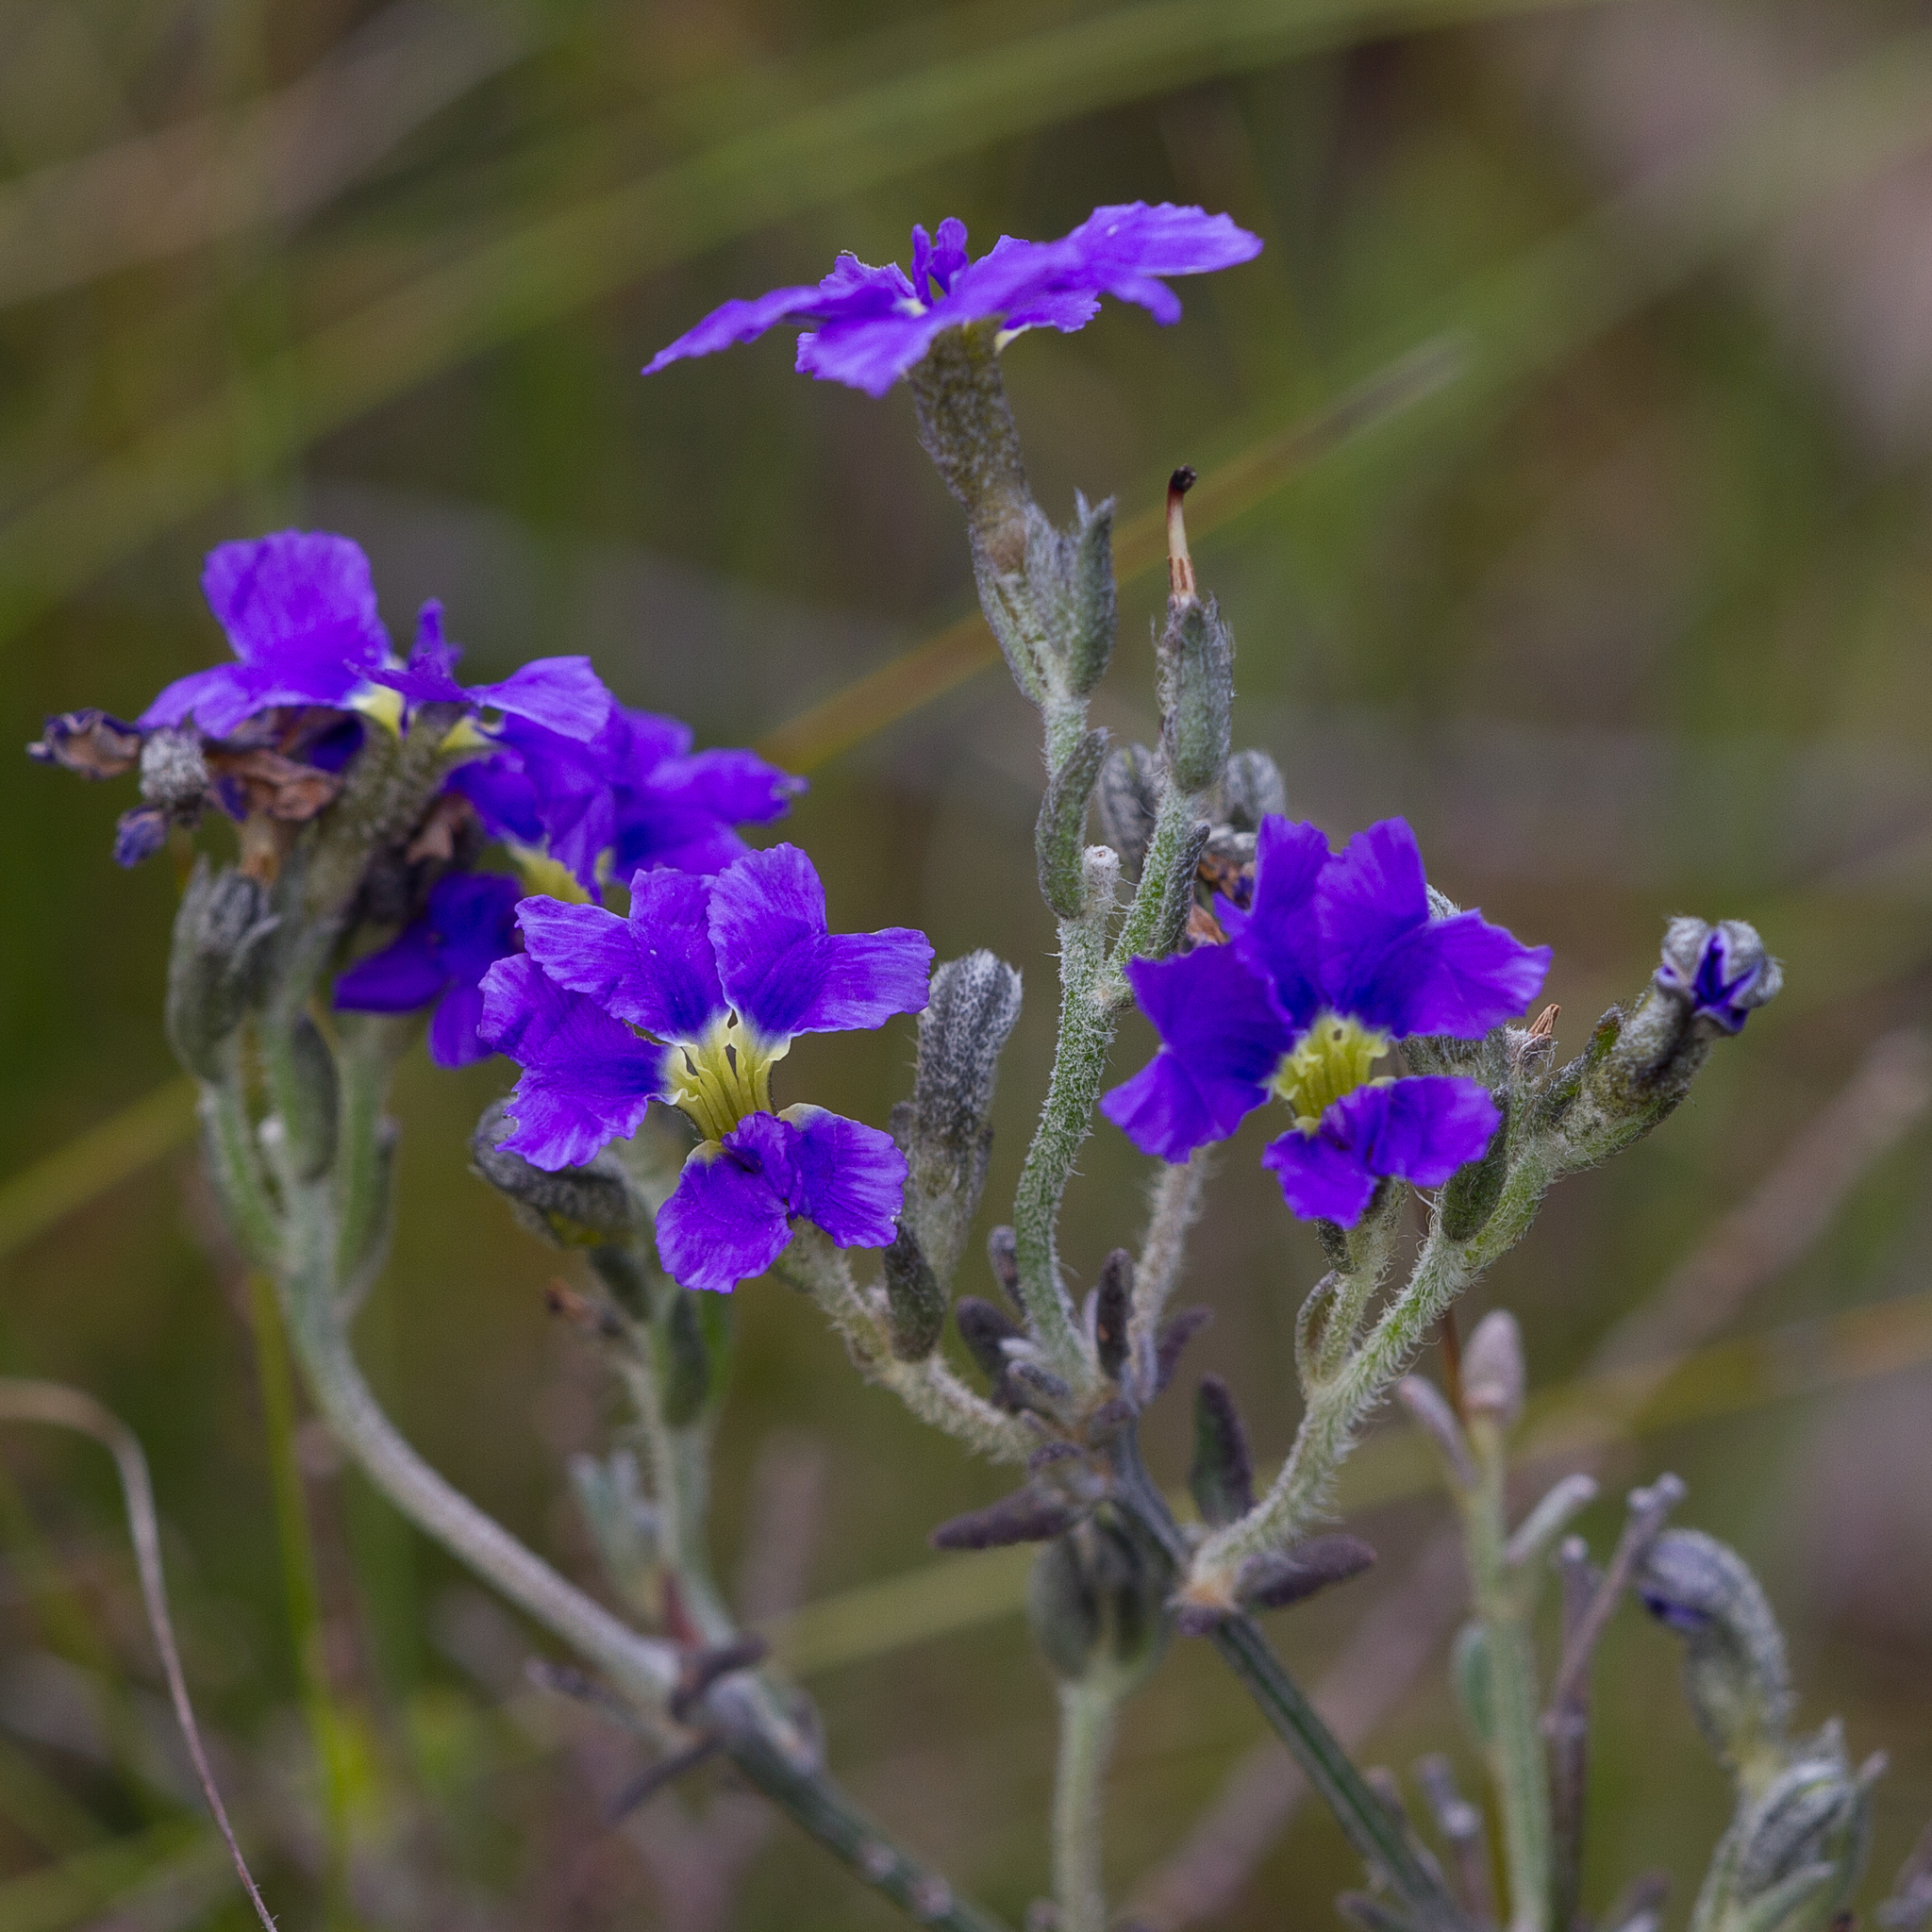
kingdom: Plantae
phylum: Tracheophyta
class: Magnoliopsida
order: Asterales
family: Goodeniaceae
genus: Dampiera
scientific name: Dampiera dysantha
